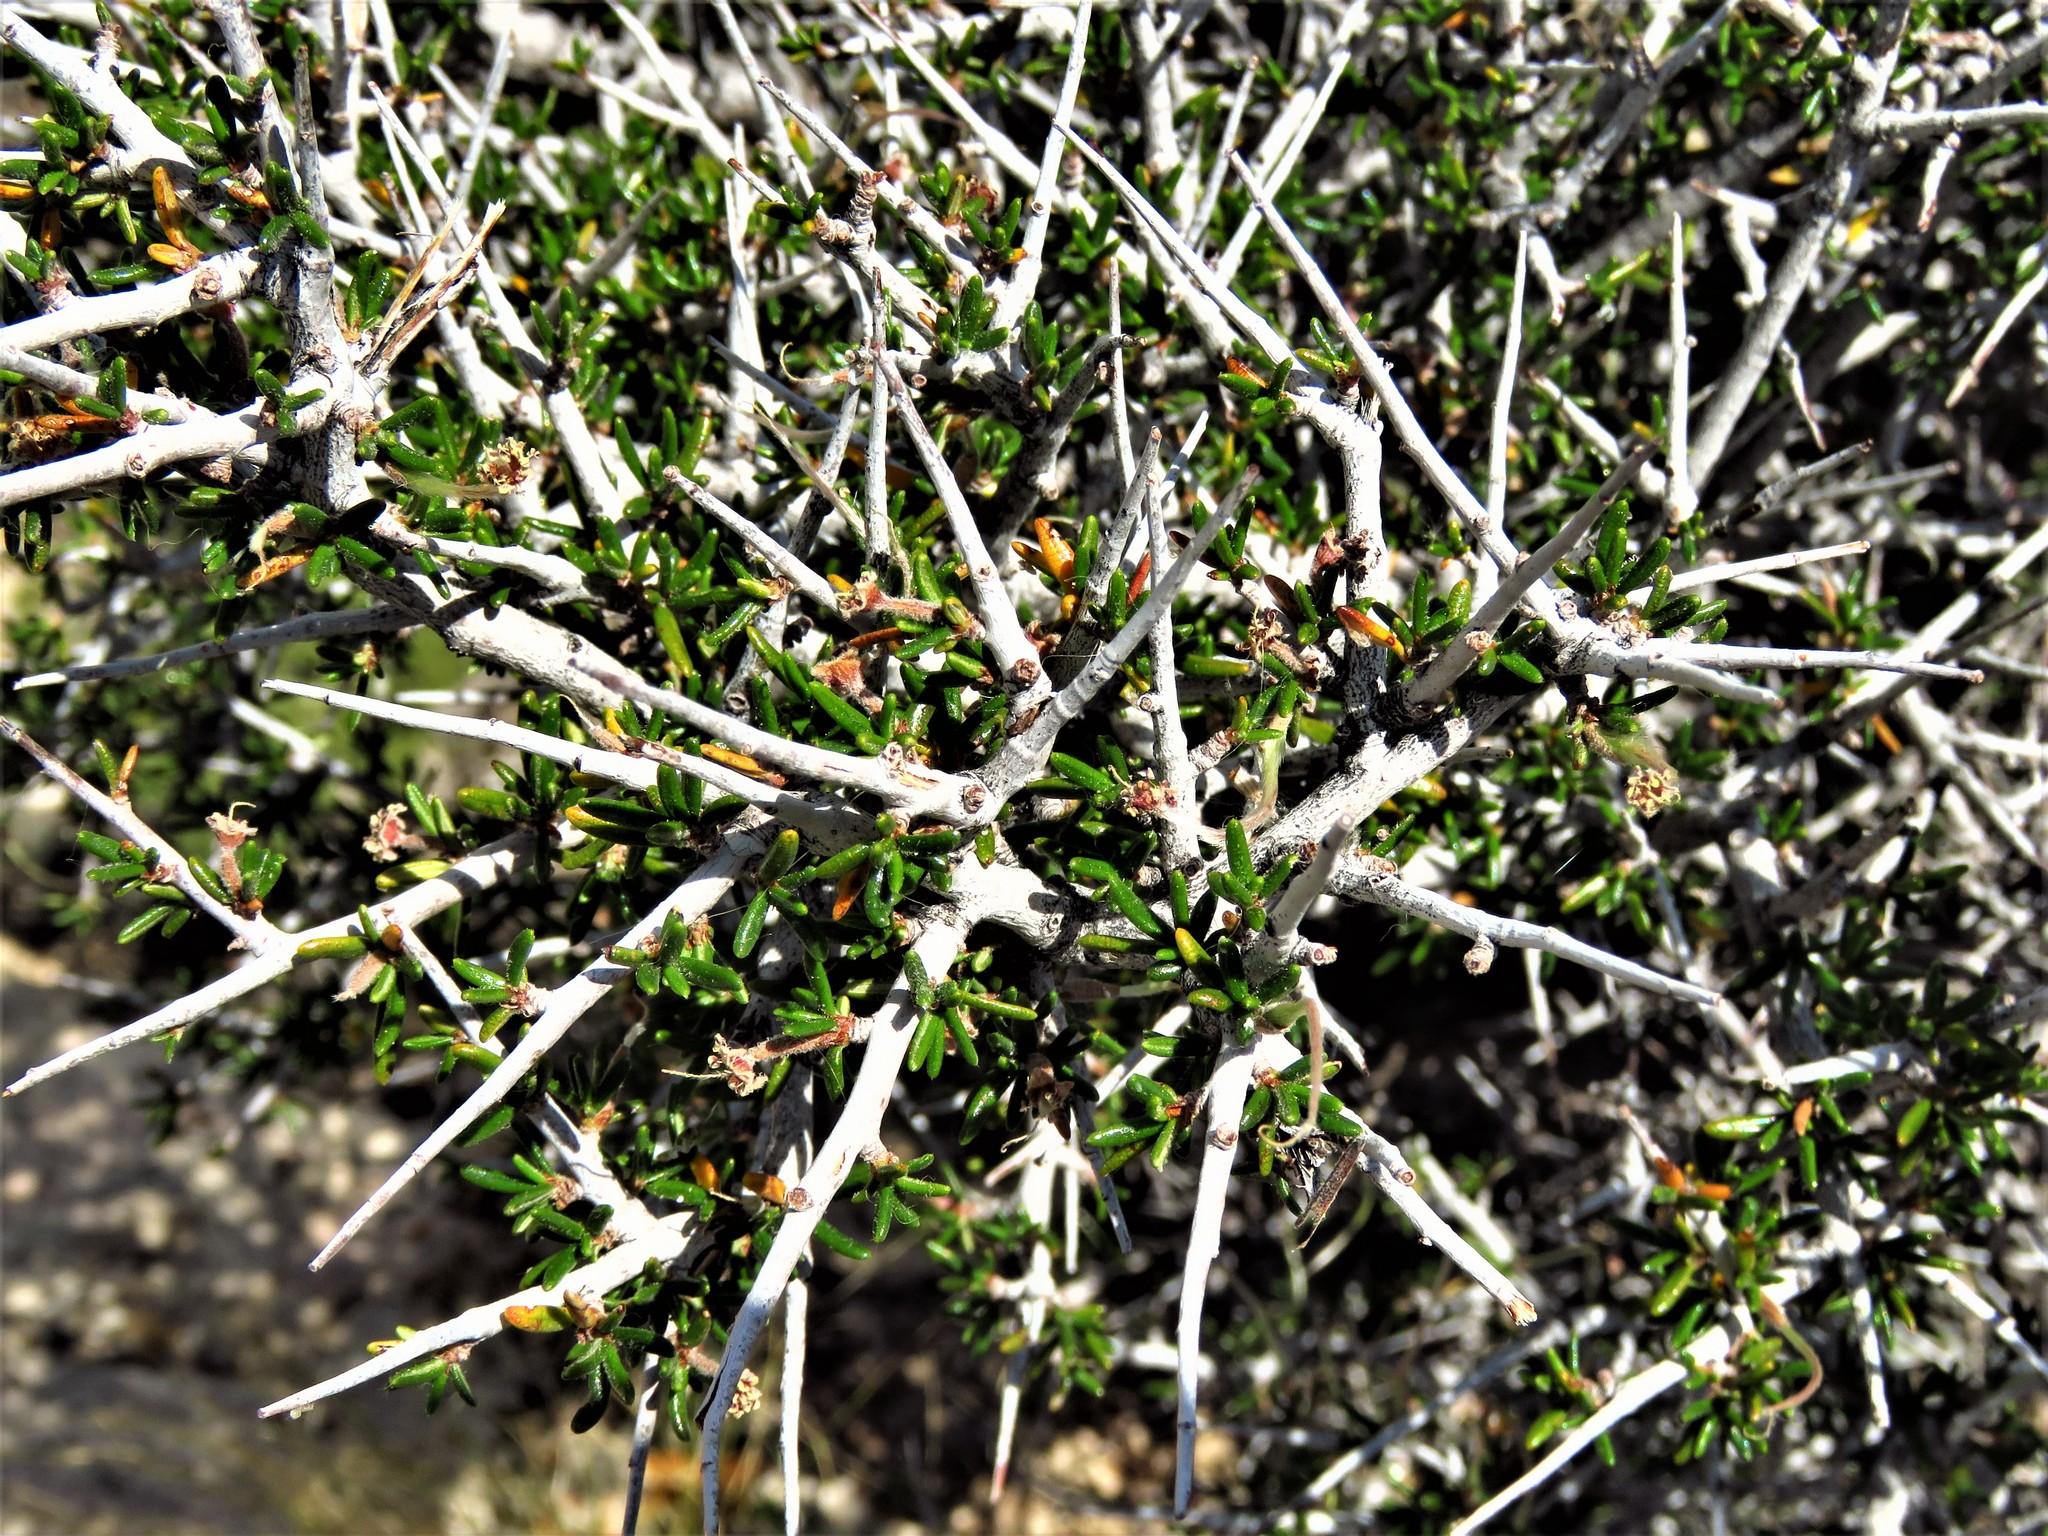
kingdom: Plantae
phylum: Tracheophyta
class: Magnoliopsida
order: Rosales
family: Rosaceae
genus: Cercocarpus
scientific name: Cercocarpus ledifolius
